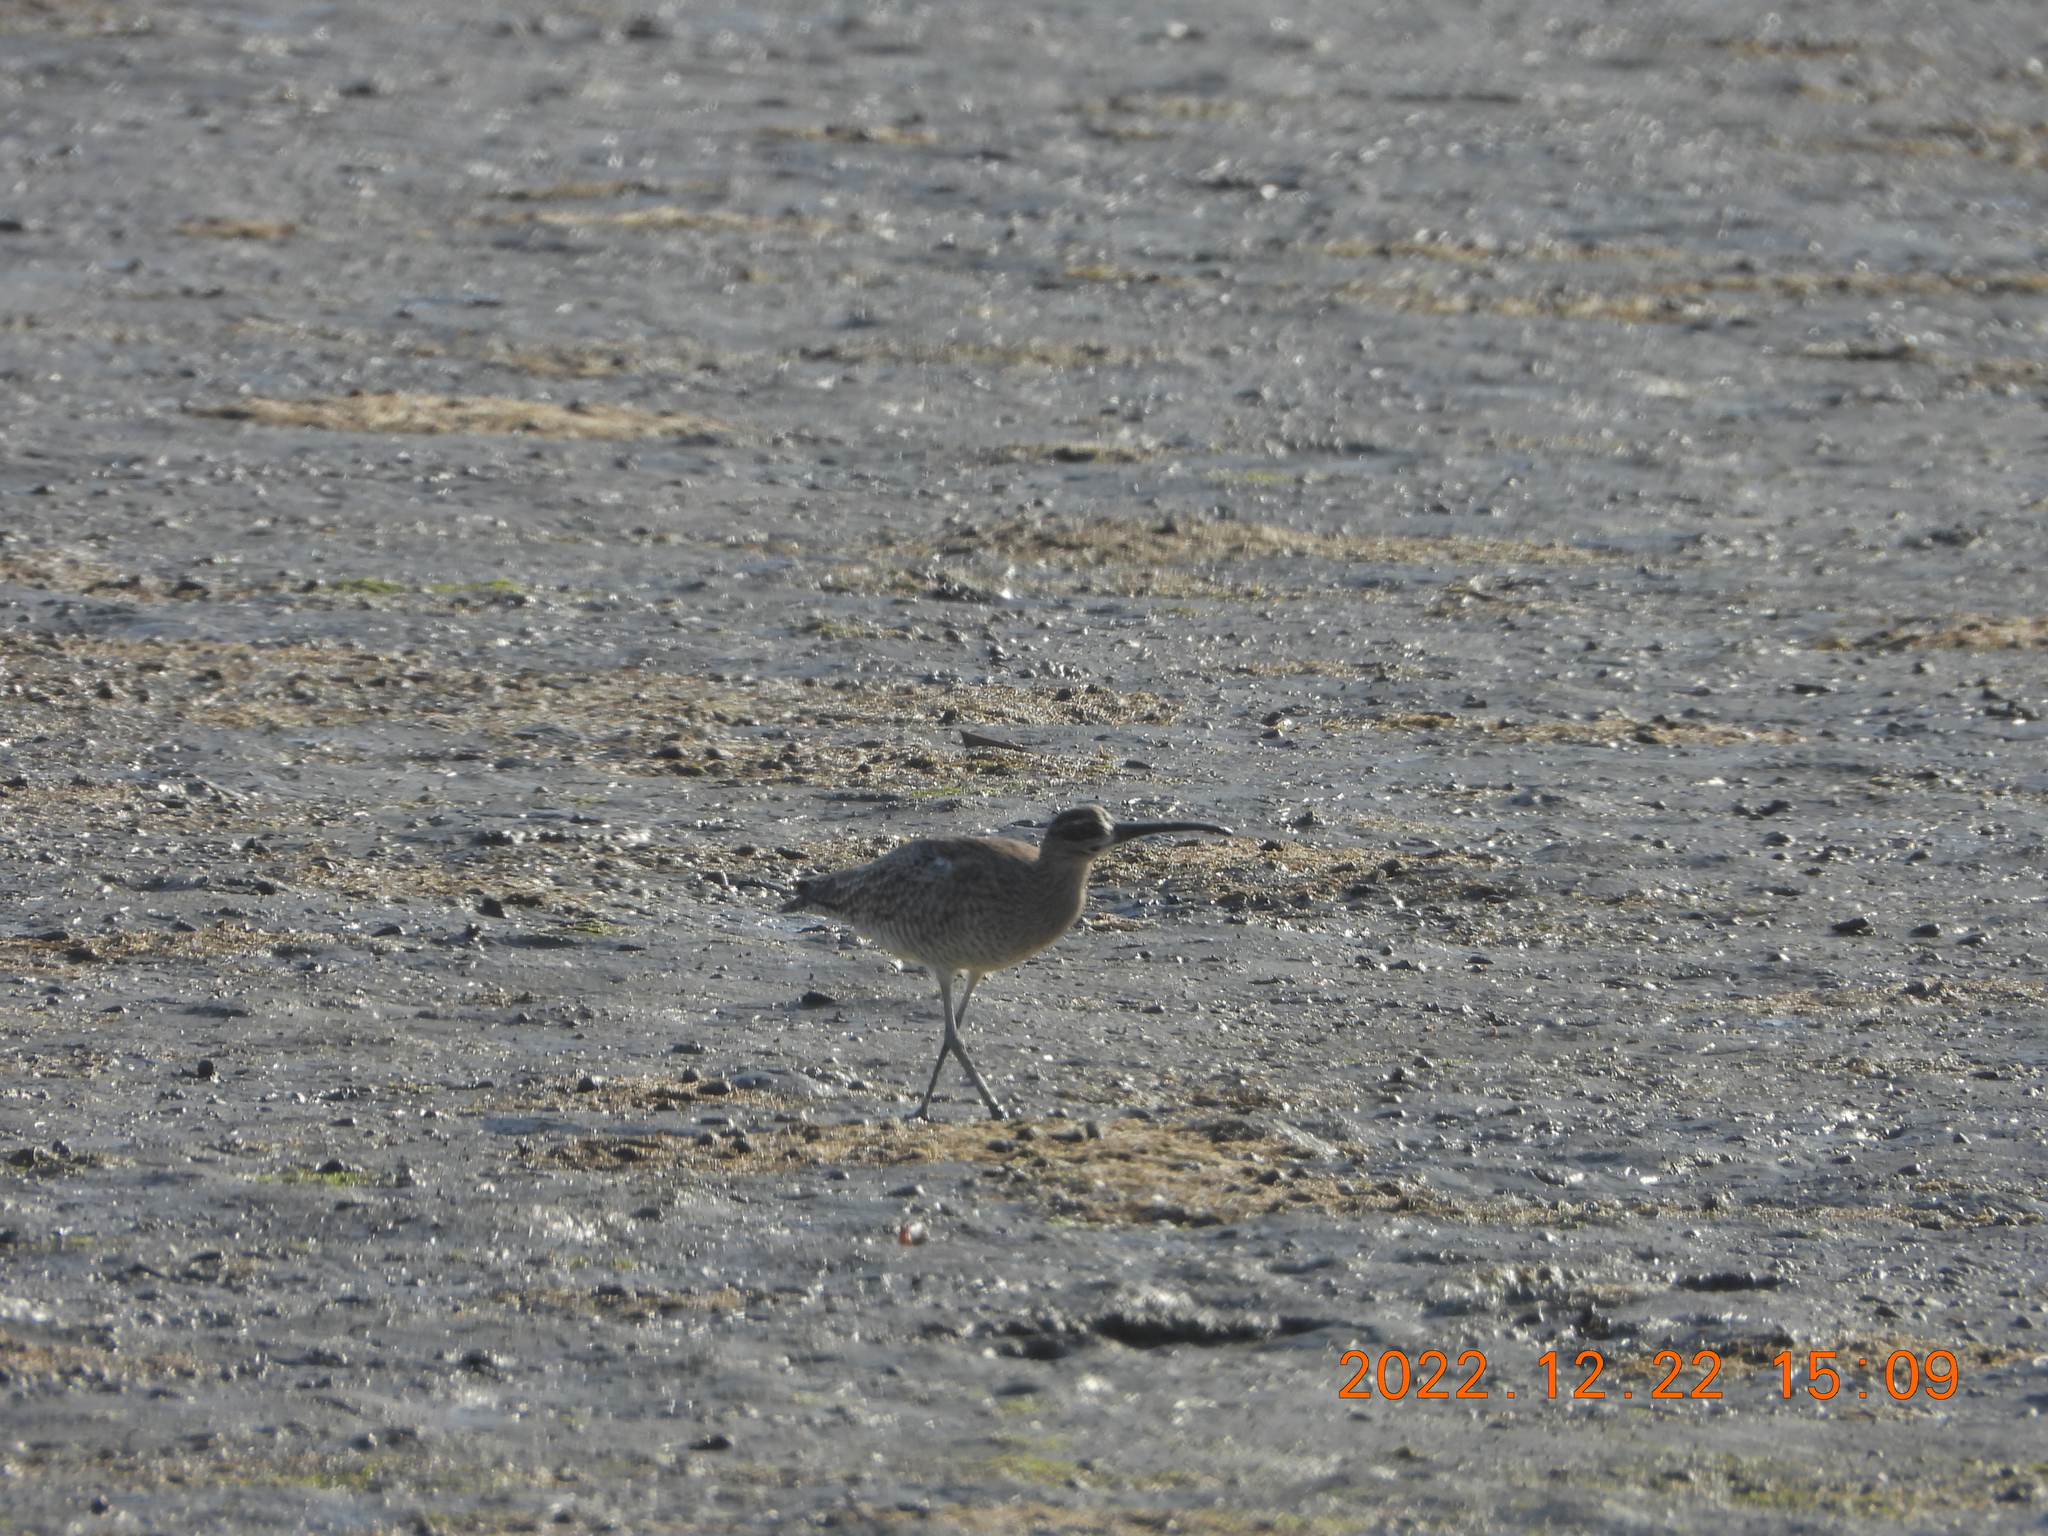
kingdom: Animalia
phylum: Chordata
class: Aves
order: Charadriiformes
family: Scolopacidae
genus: Numenius
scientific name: Numenius phaeopus
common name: Whimbrel
